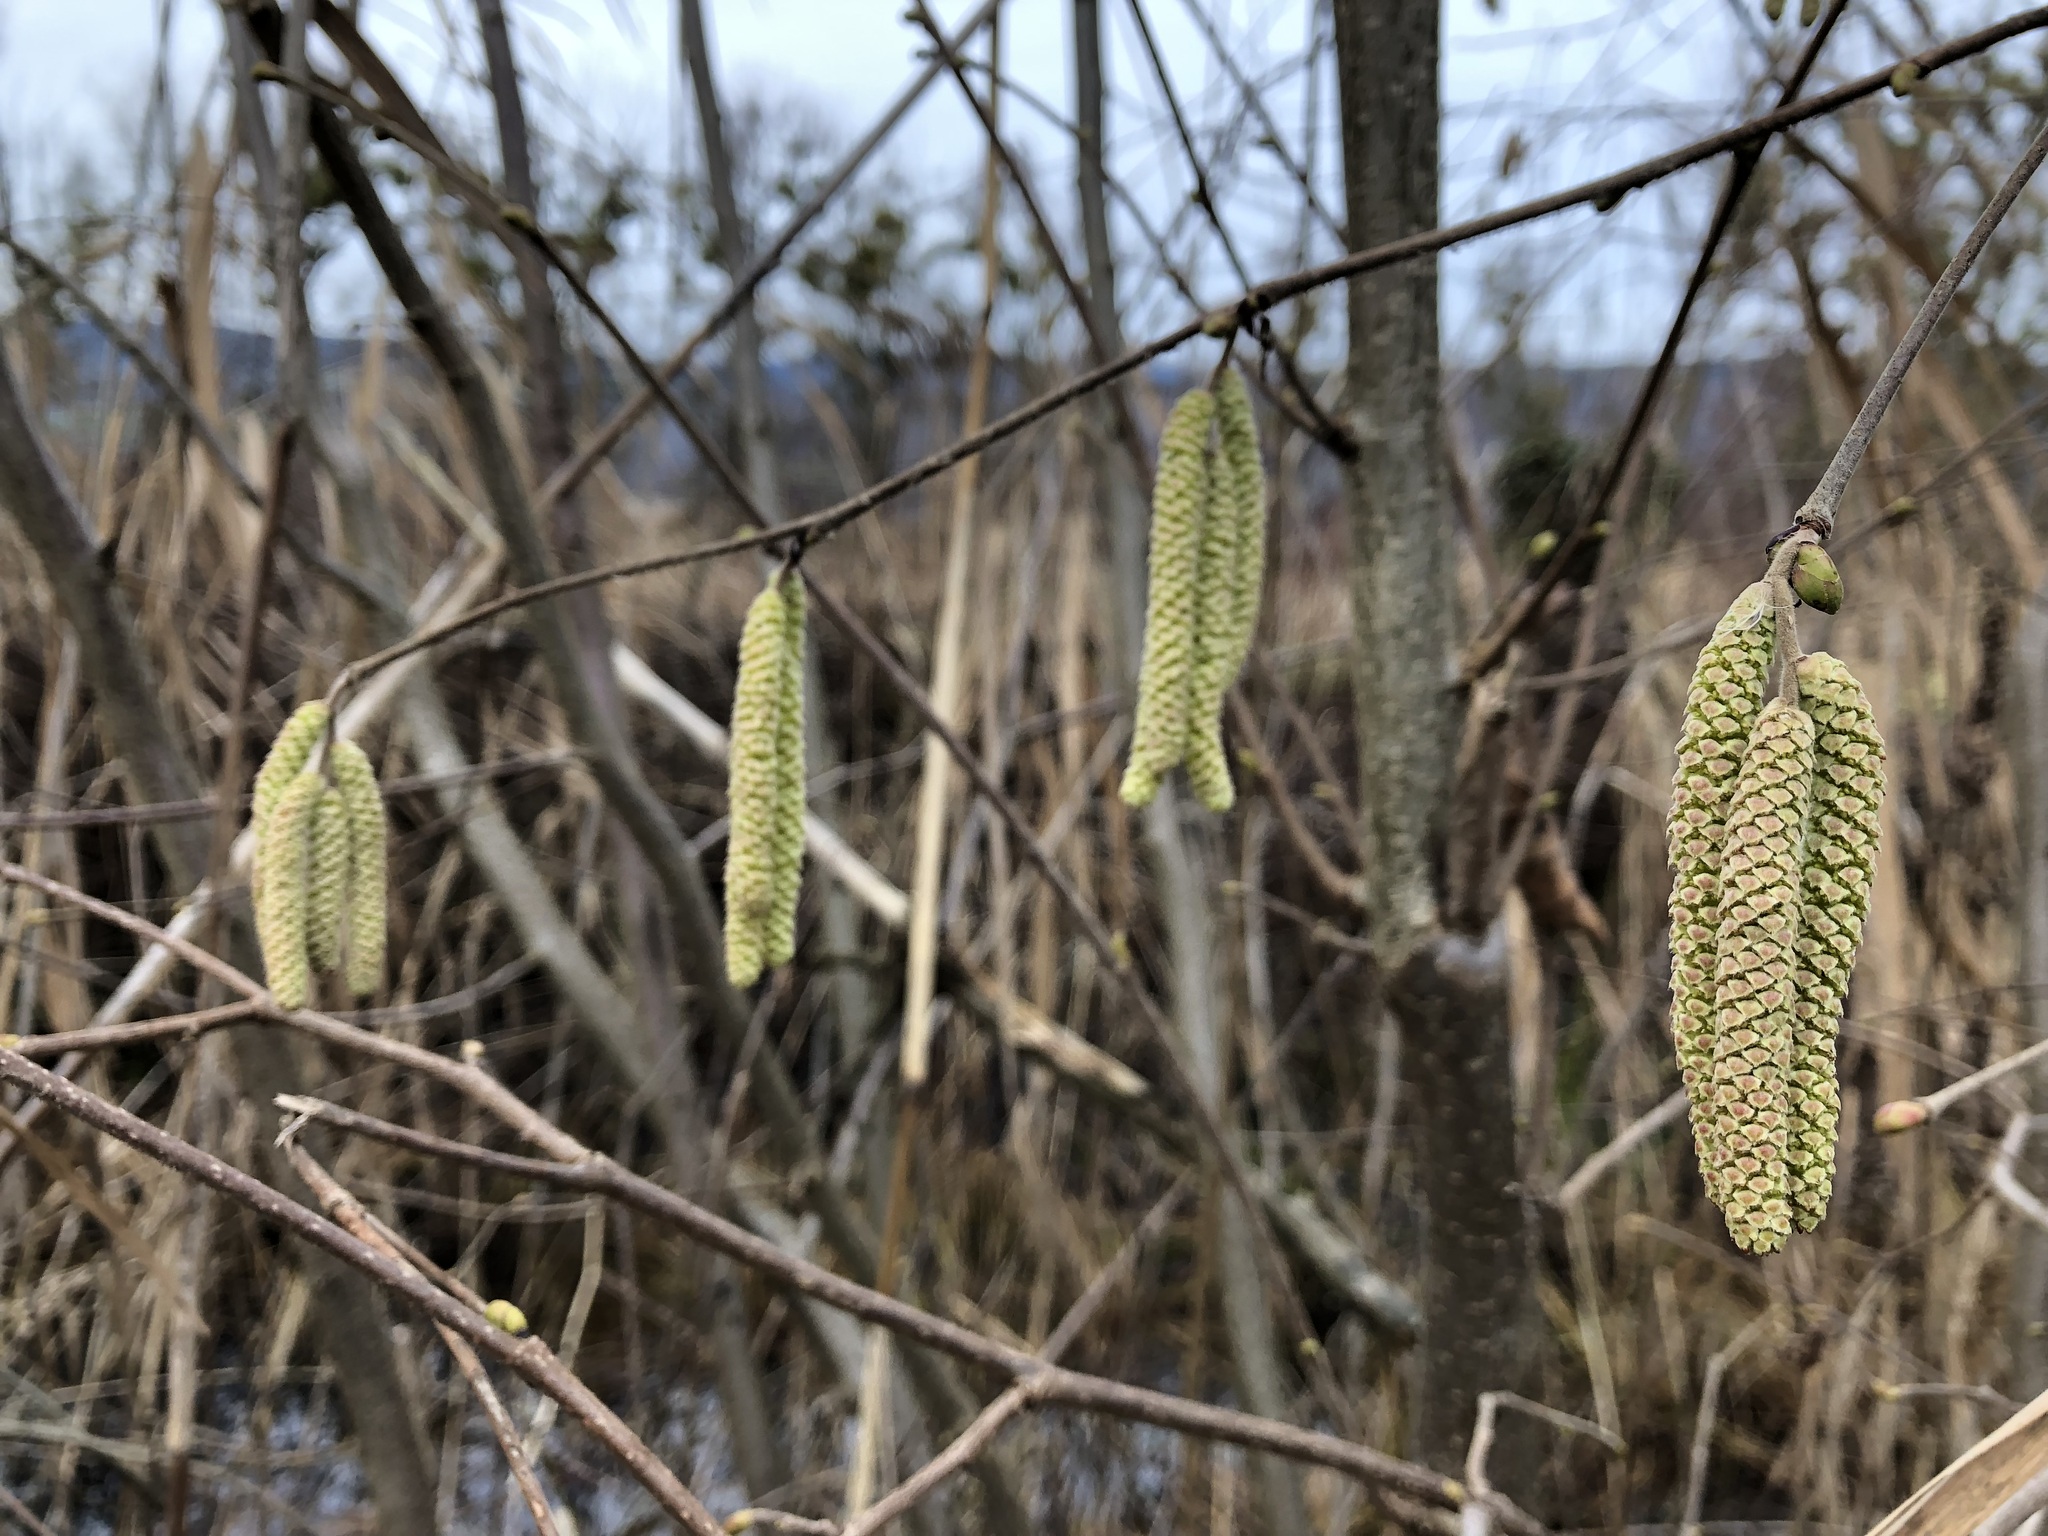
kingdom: Plantae
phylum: Tracheophyta
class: Magnoliopsida
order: Fagales
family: Betulaceae
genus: Corylus
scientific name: Corylus avellana
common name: European hazel
